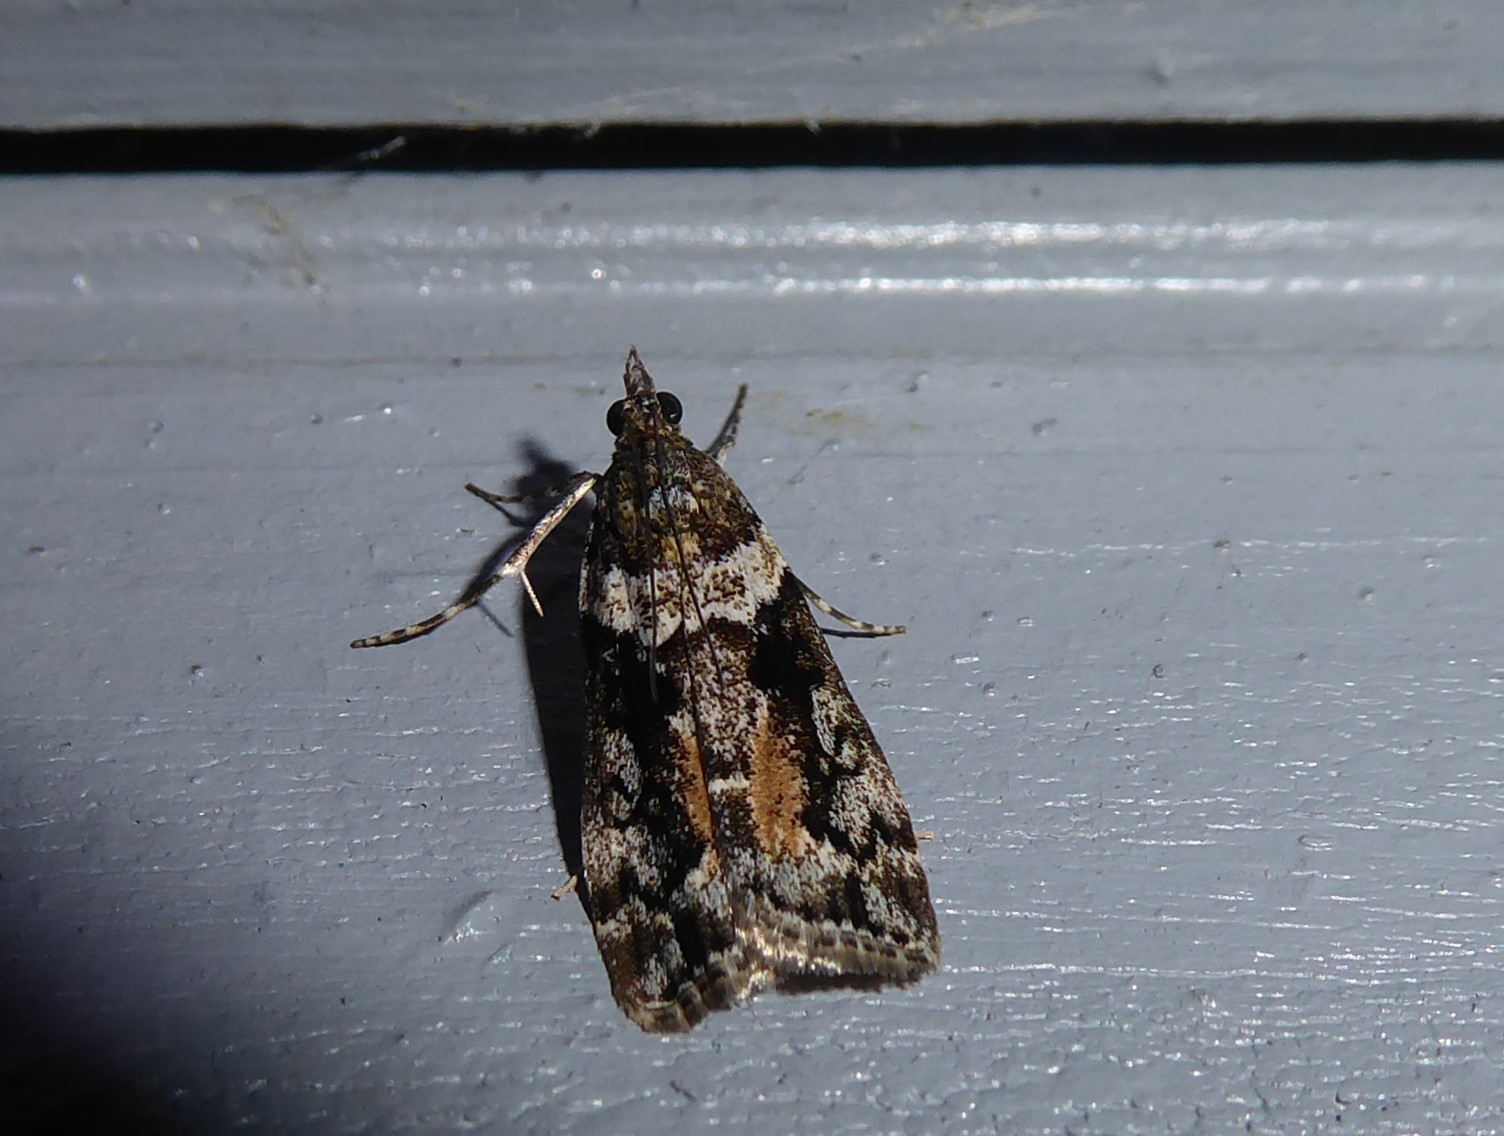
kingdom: Animalia
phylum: Arthropoda
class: Insecta
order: Lepidoptera
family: Crambidae
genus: Eudonia
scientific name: Eudonia submarginalis
